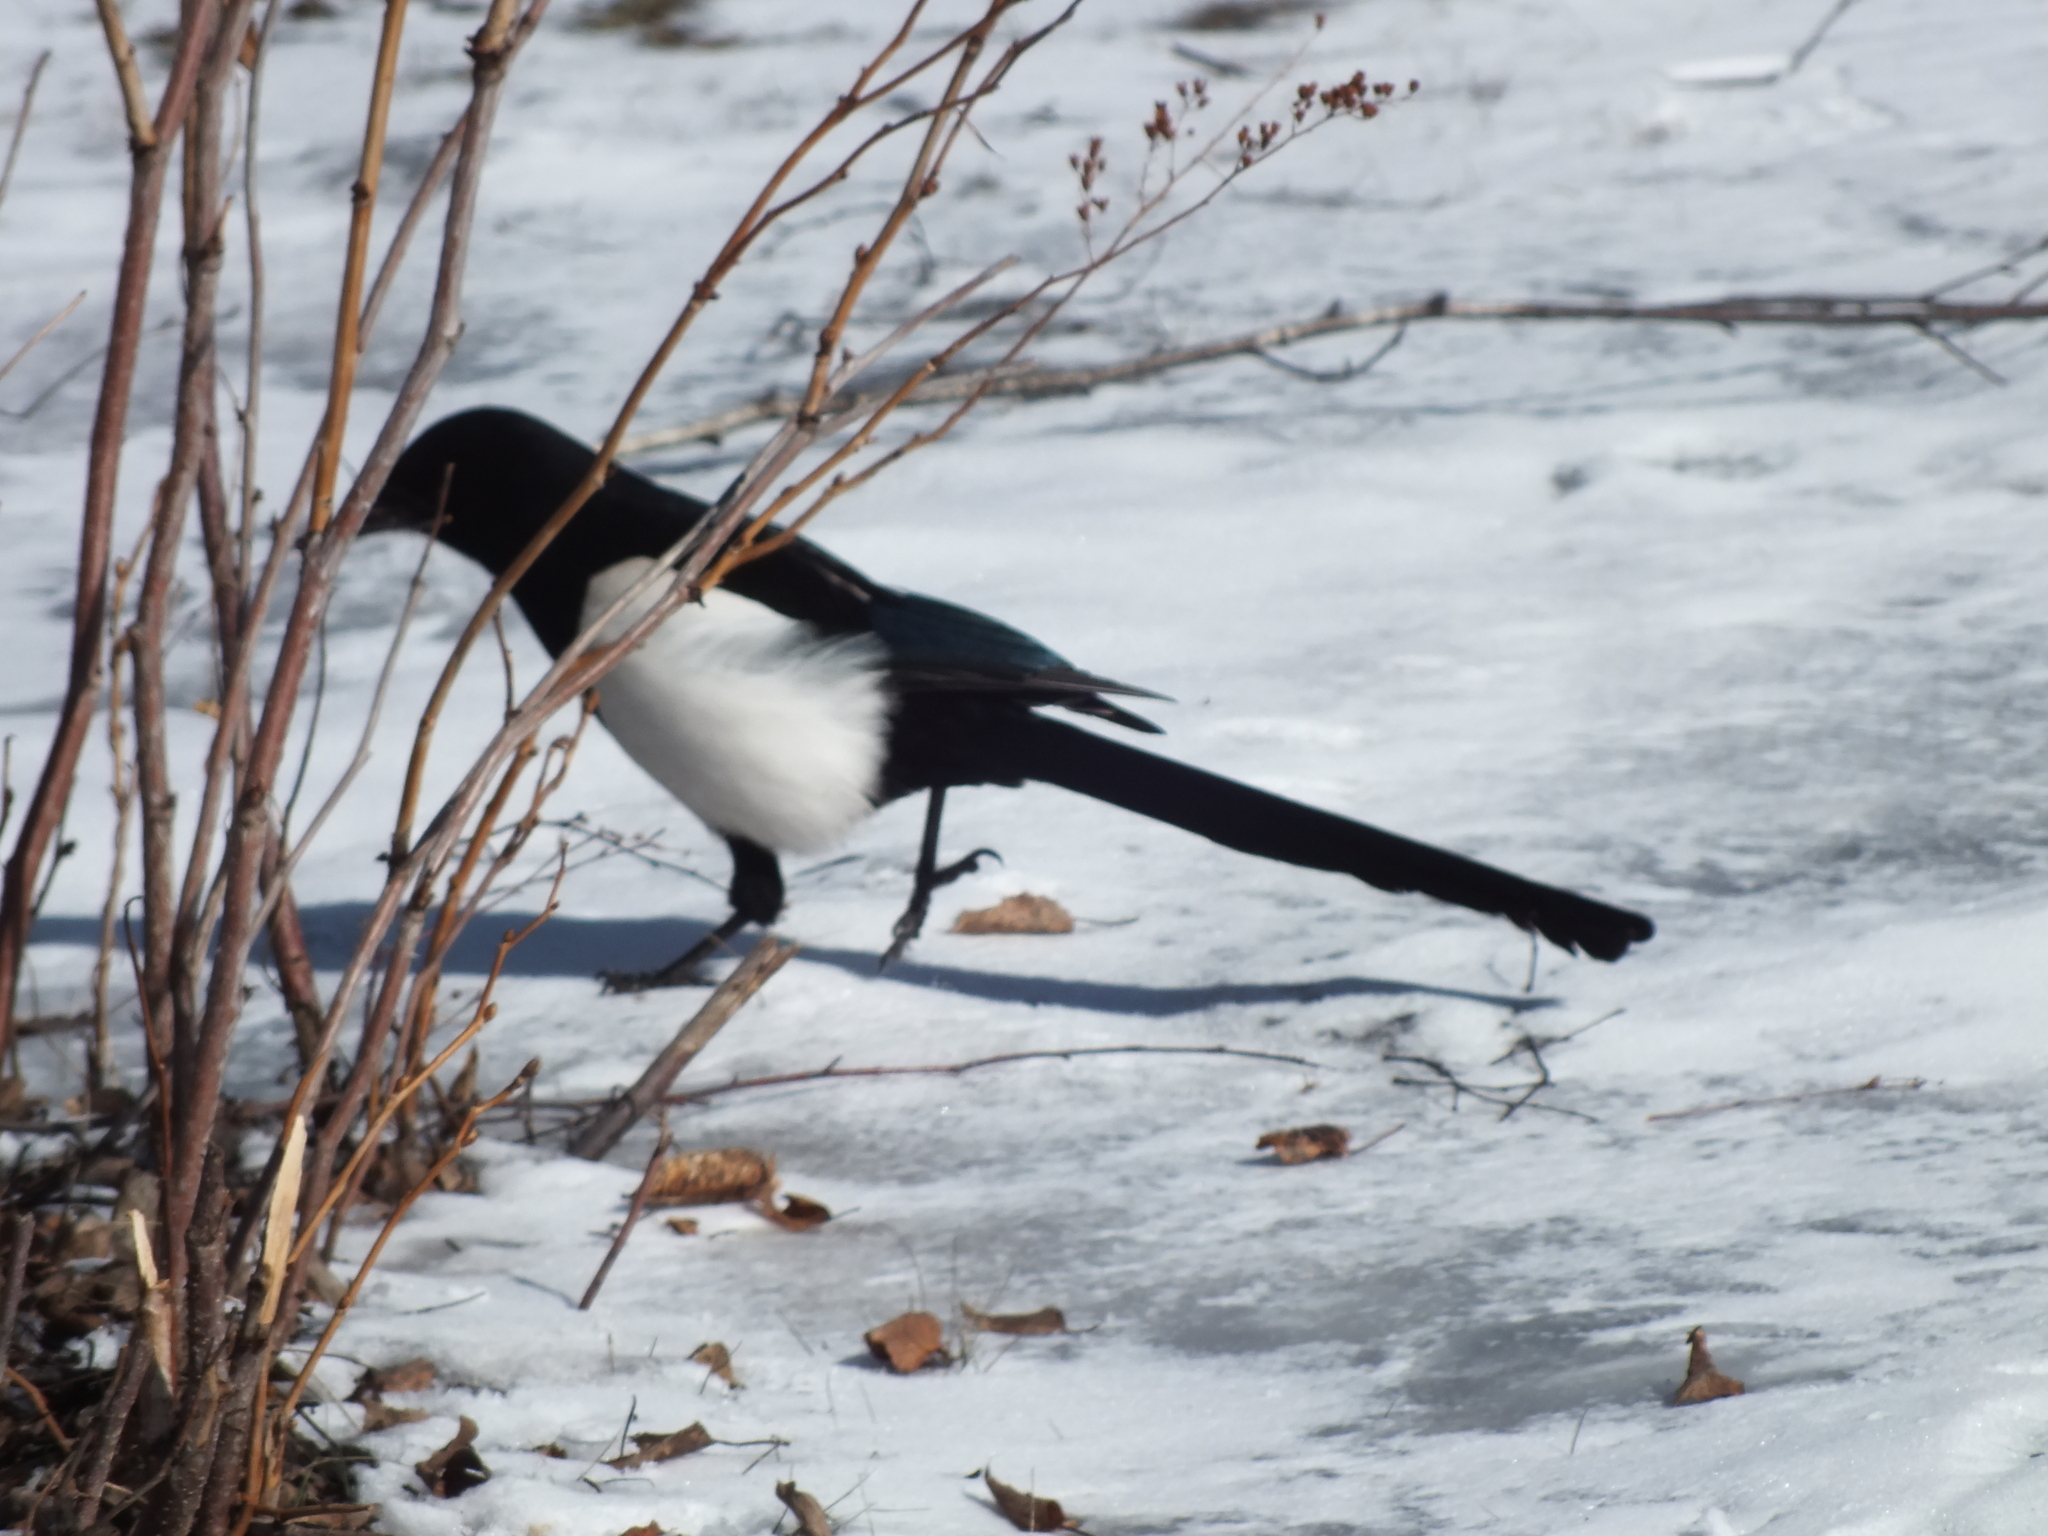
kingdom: Animalia
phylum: Chordata
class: Aves
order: Passeriformes
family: Corvidae
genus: Pica
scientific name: Pica pica
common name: Eurasian magpie
